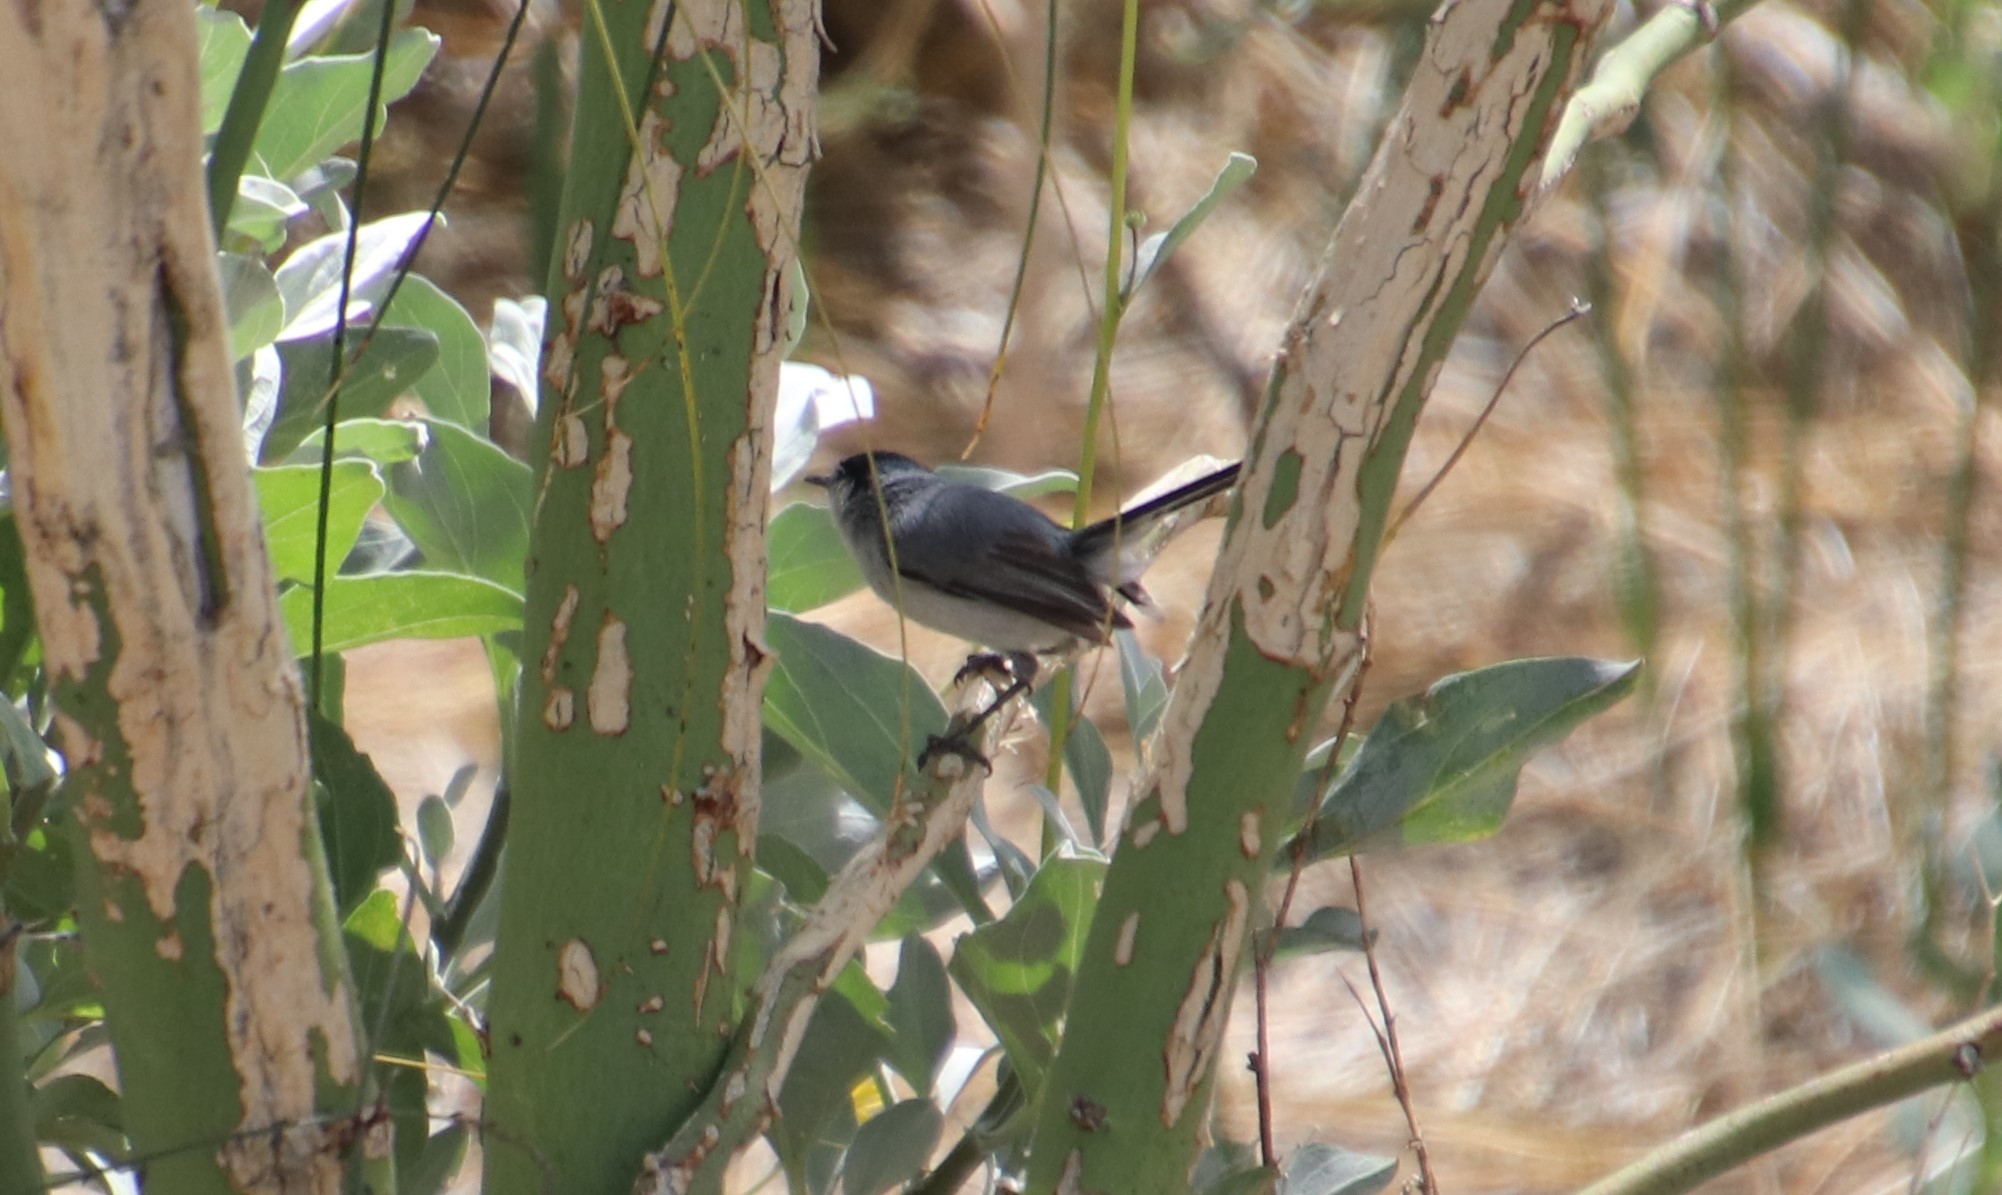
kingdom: Animalia
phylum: Chordata
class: Aves
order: Passeriformes
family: Polioptilidae
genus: Polioptila
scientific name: Polioptila melanura
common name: Black-tailed gnatcatcher
